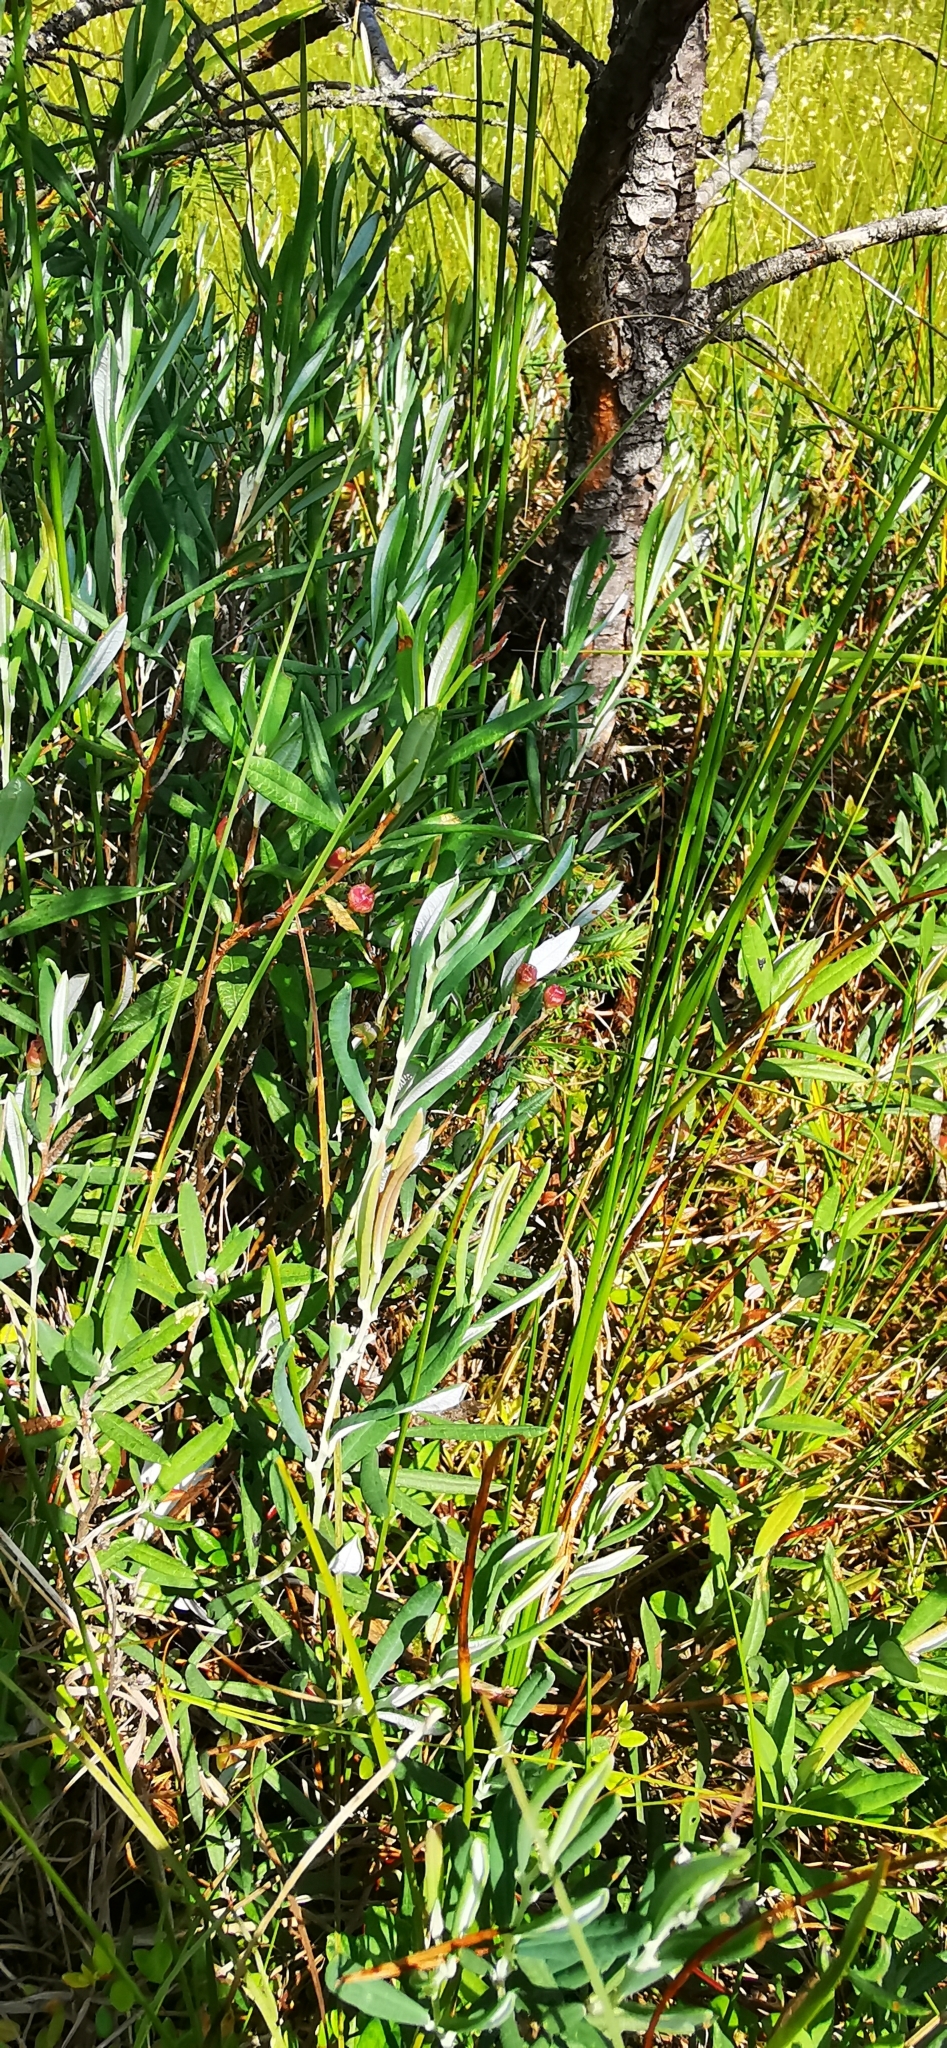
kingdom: Plantae
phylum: Tracheophyta
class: Magnoliopsida
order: Ericales
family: Ericaceae
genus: Andromeda
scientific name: Andromeda polifolia
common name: Bog-rosemary
